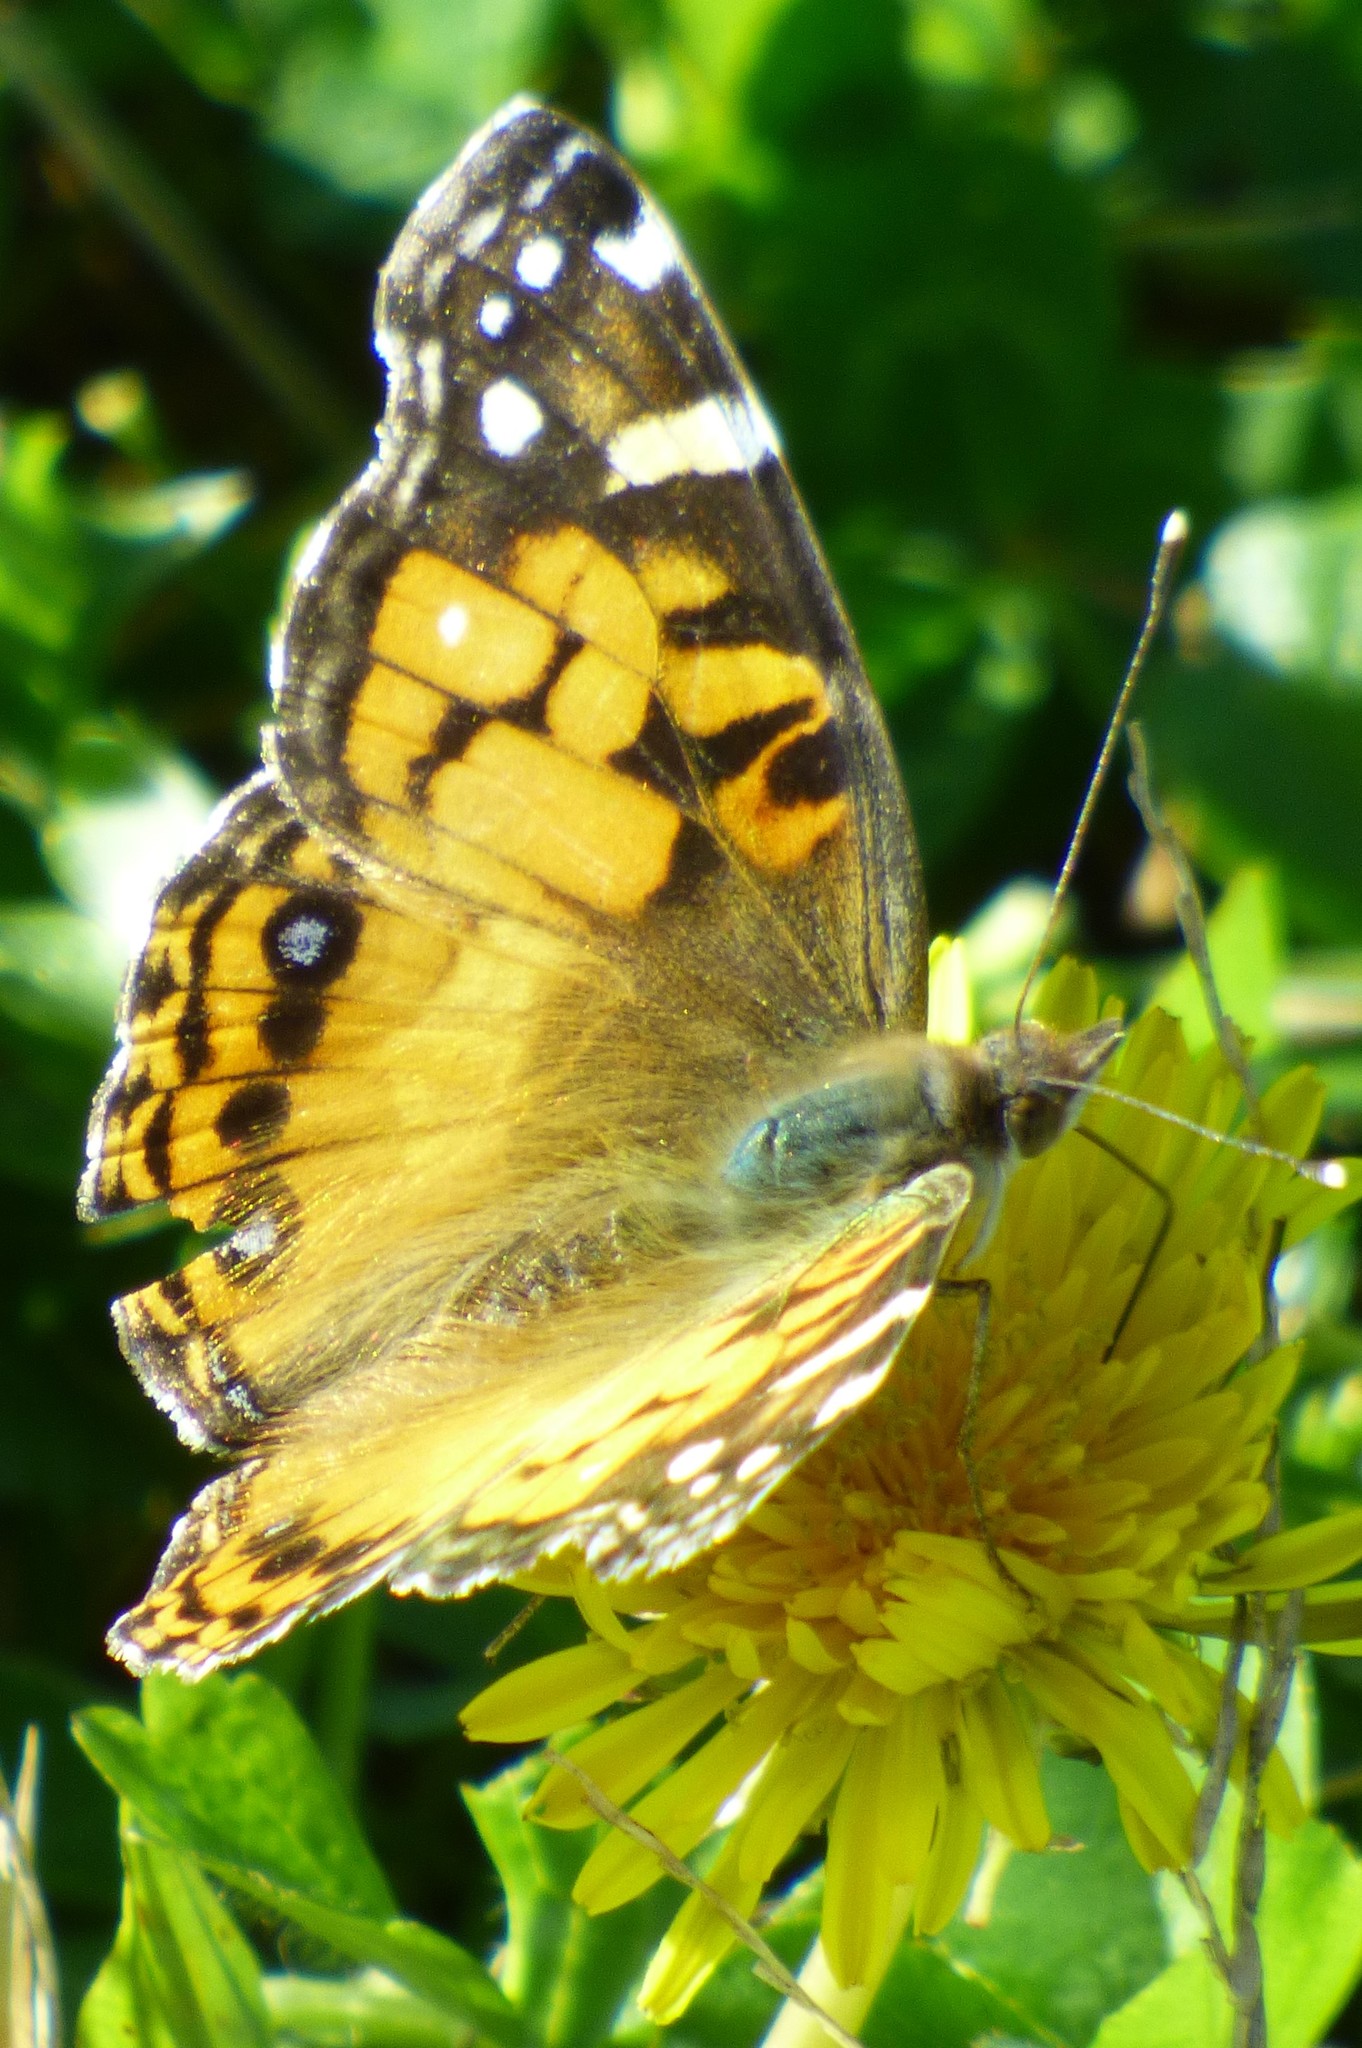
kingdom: Animalia
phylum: Arthropoda
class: Insecta
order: Lepidoptera
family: Nymphalidae
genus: Vanessa
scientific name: Vanessa virginiensis
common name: American lady
